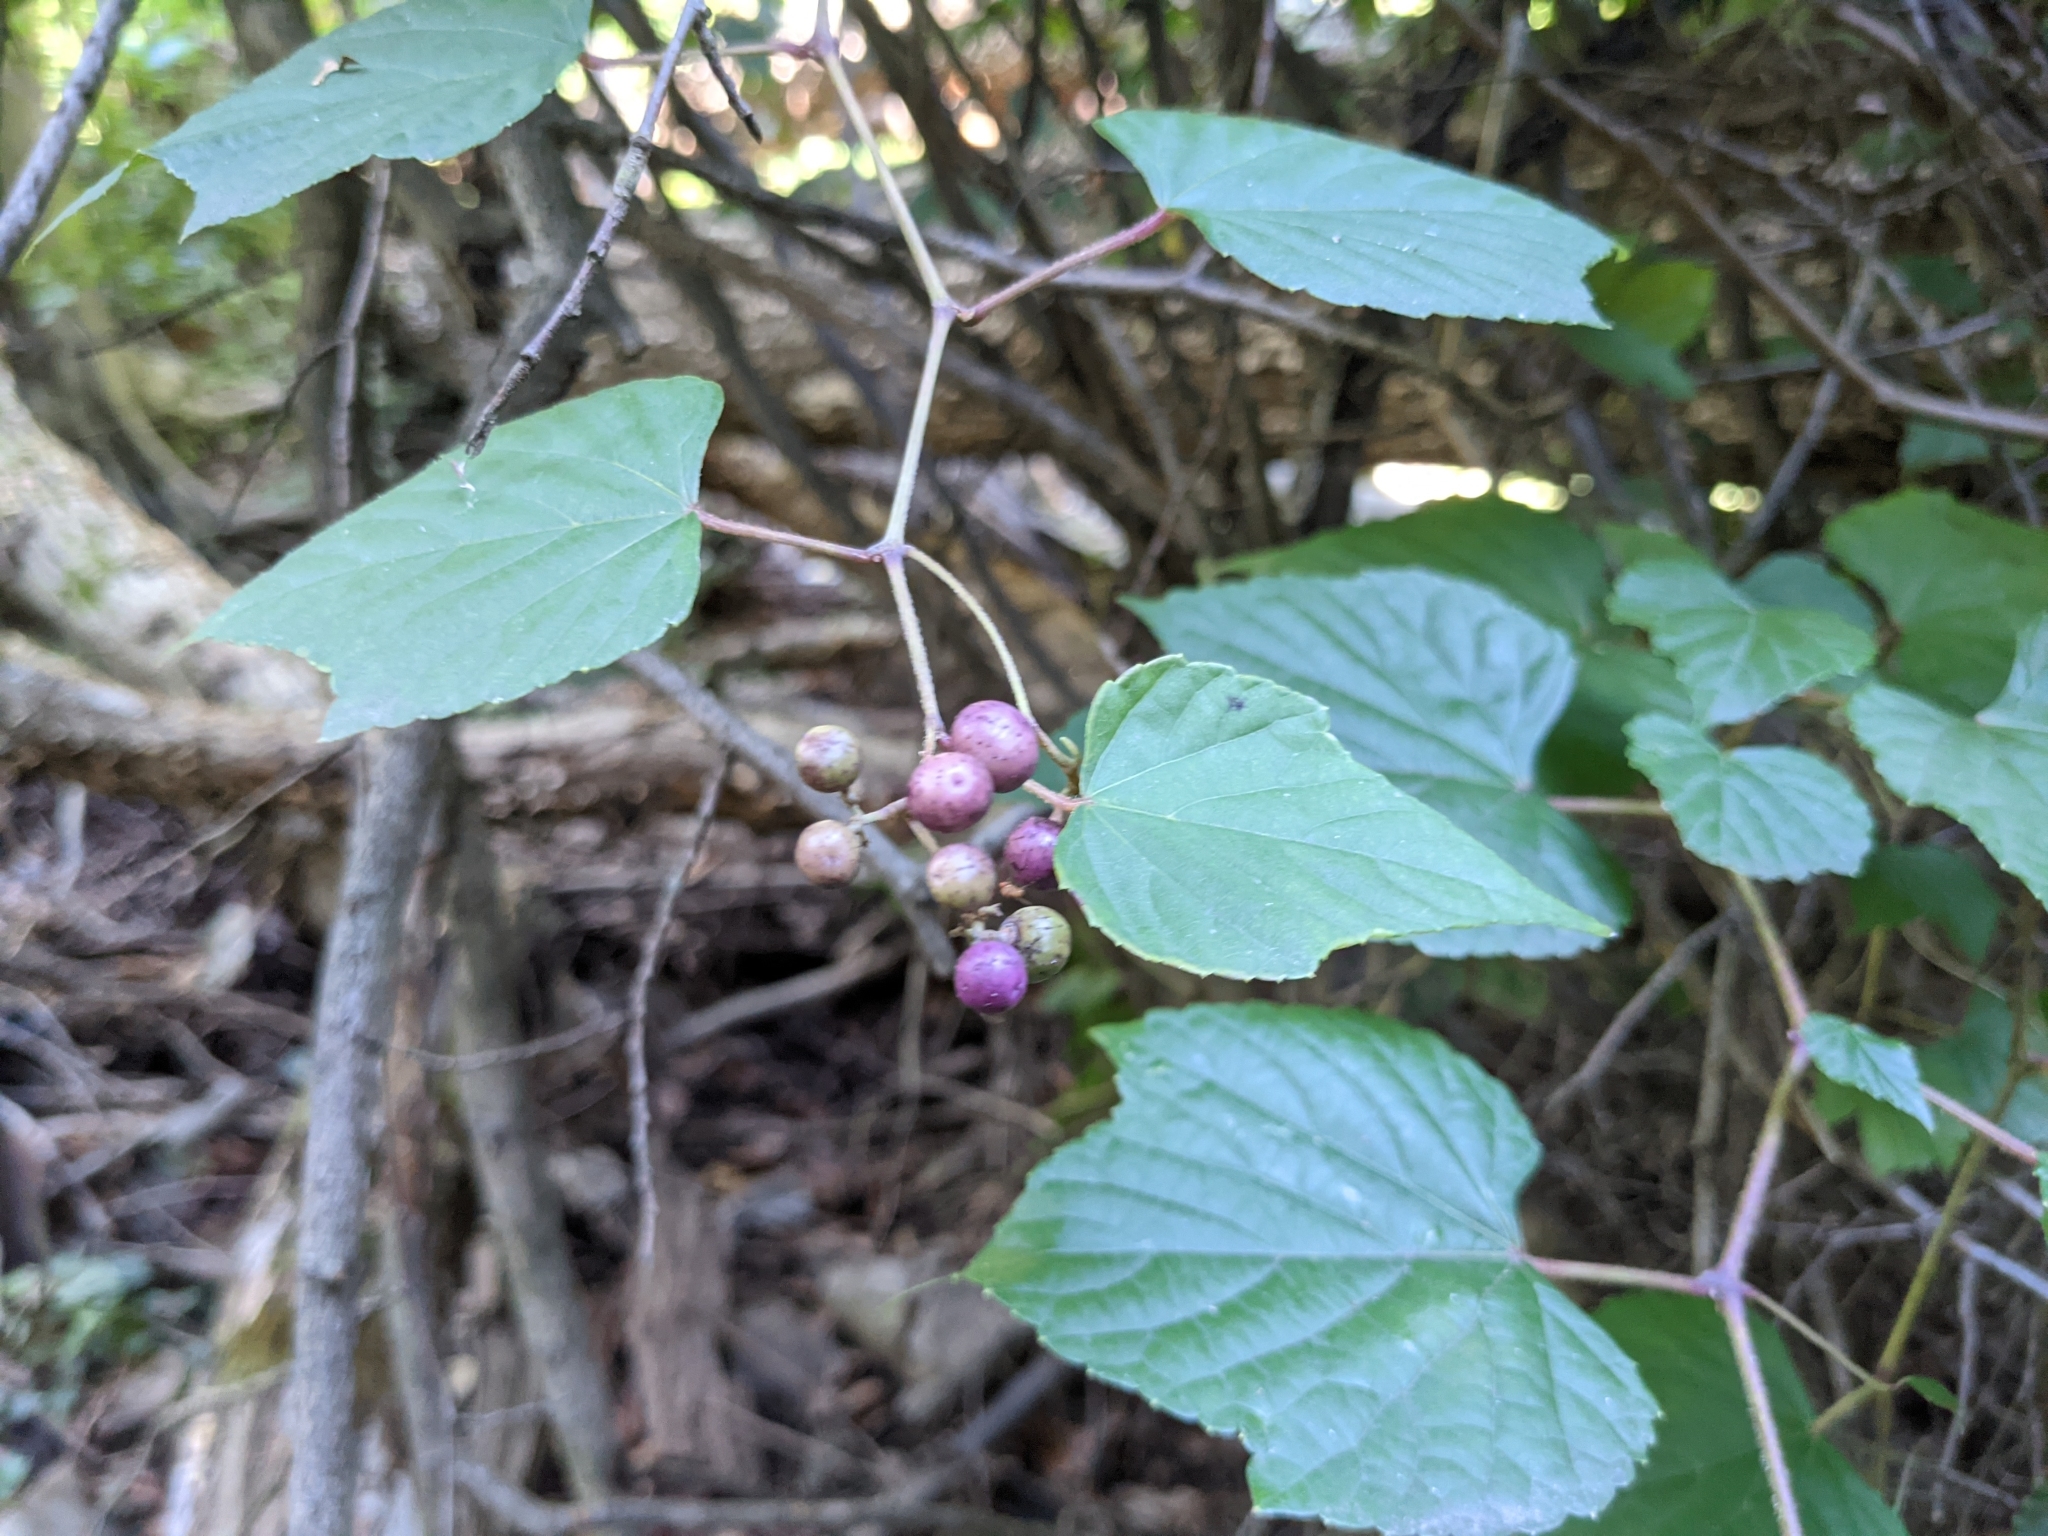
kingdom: Plantae
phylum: Tracheophyta
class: Magnoliopsida
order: Vitales
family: Vitaceae
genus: Ampelopsis
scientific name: Ampelopsis glandulosa
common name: Amur peppervine
